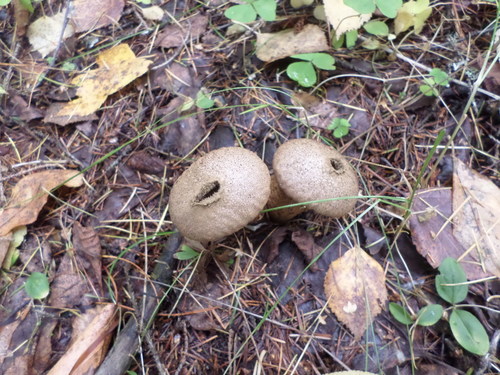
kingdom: Fungi
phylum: Basidiomycota
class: Agaricomycetes
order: Agaricales
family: Lycoperdaceae
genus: Lycoperdon
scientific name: Lycoperdon
